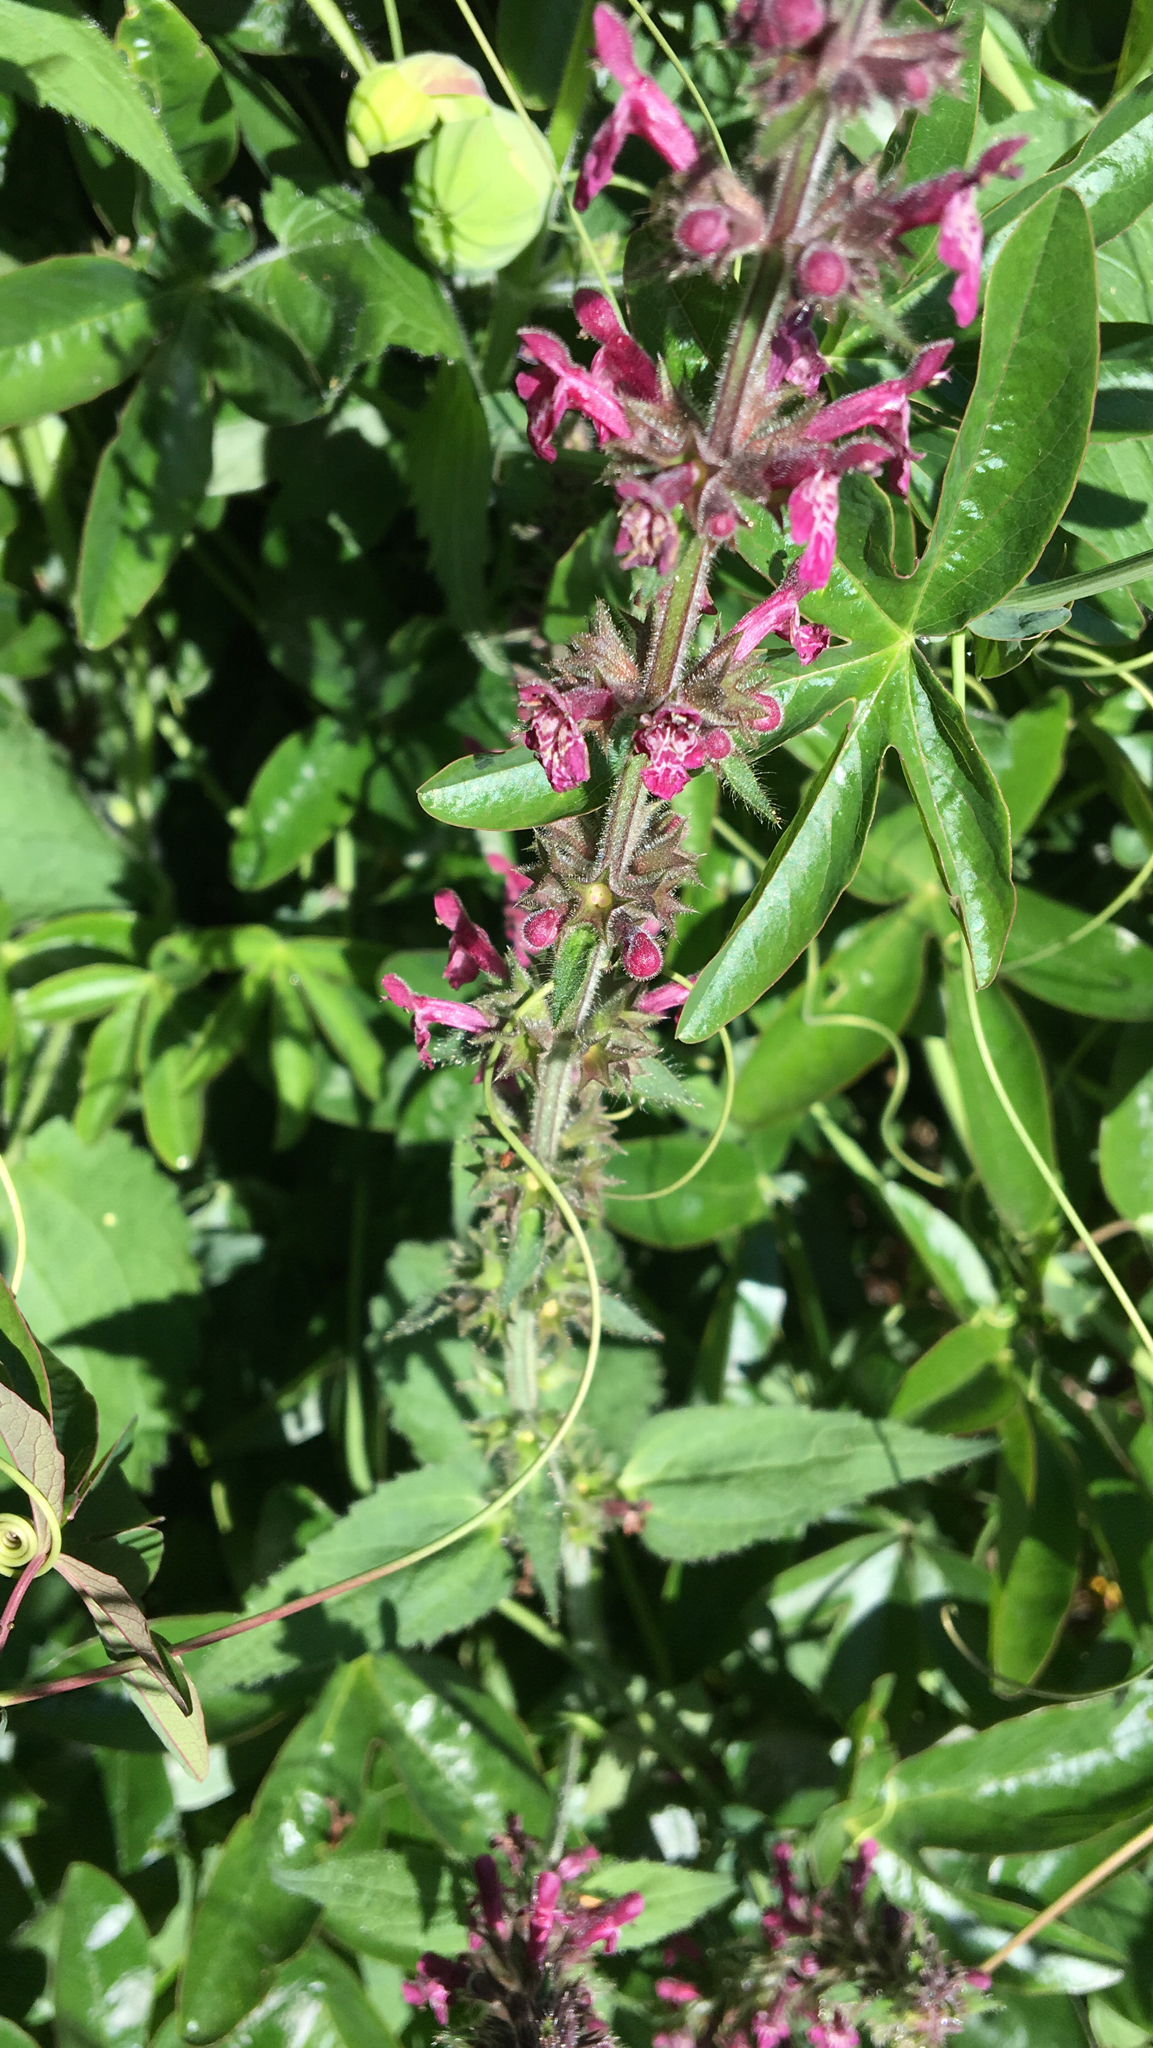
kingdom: Plantae
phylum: Tracheophyta
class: Magnoliopsida
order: Lamiales
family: Lamiaceae
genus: Stachys
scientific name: Stachys sylvatica
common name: Hedge woundwort
